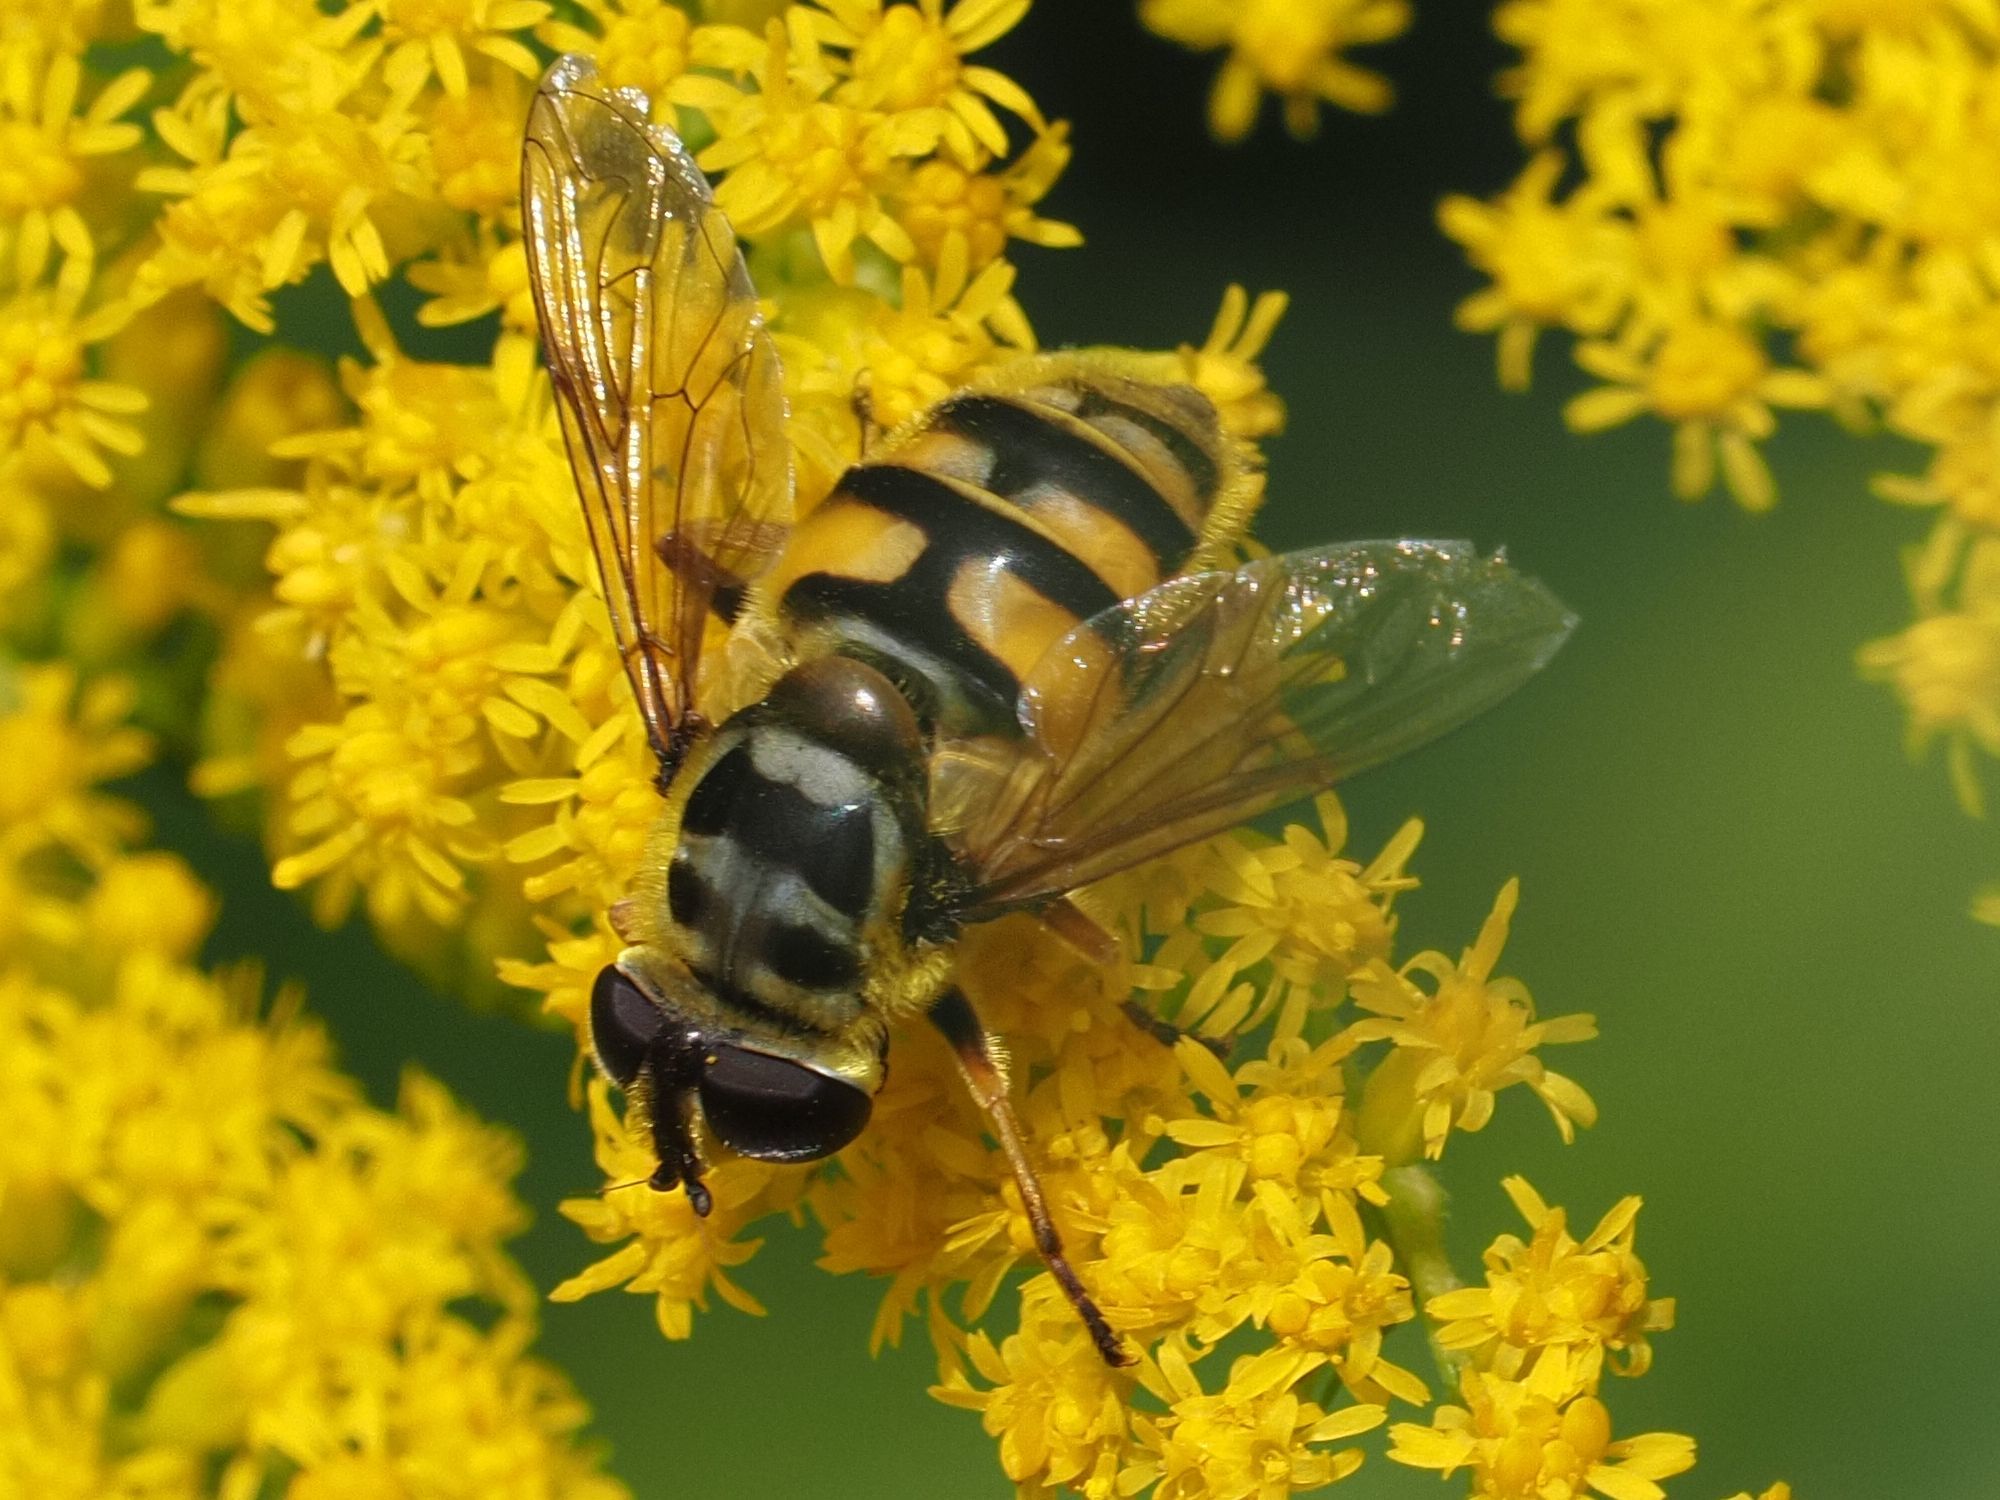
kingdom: Animalia
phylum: Arthropoda
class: Insecta
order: Diptera
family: Syrphidae
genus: Myathropa
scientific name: Myathropa florea
